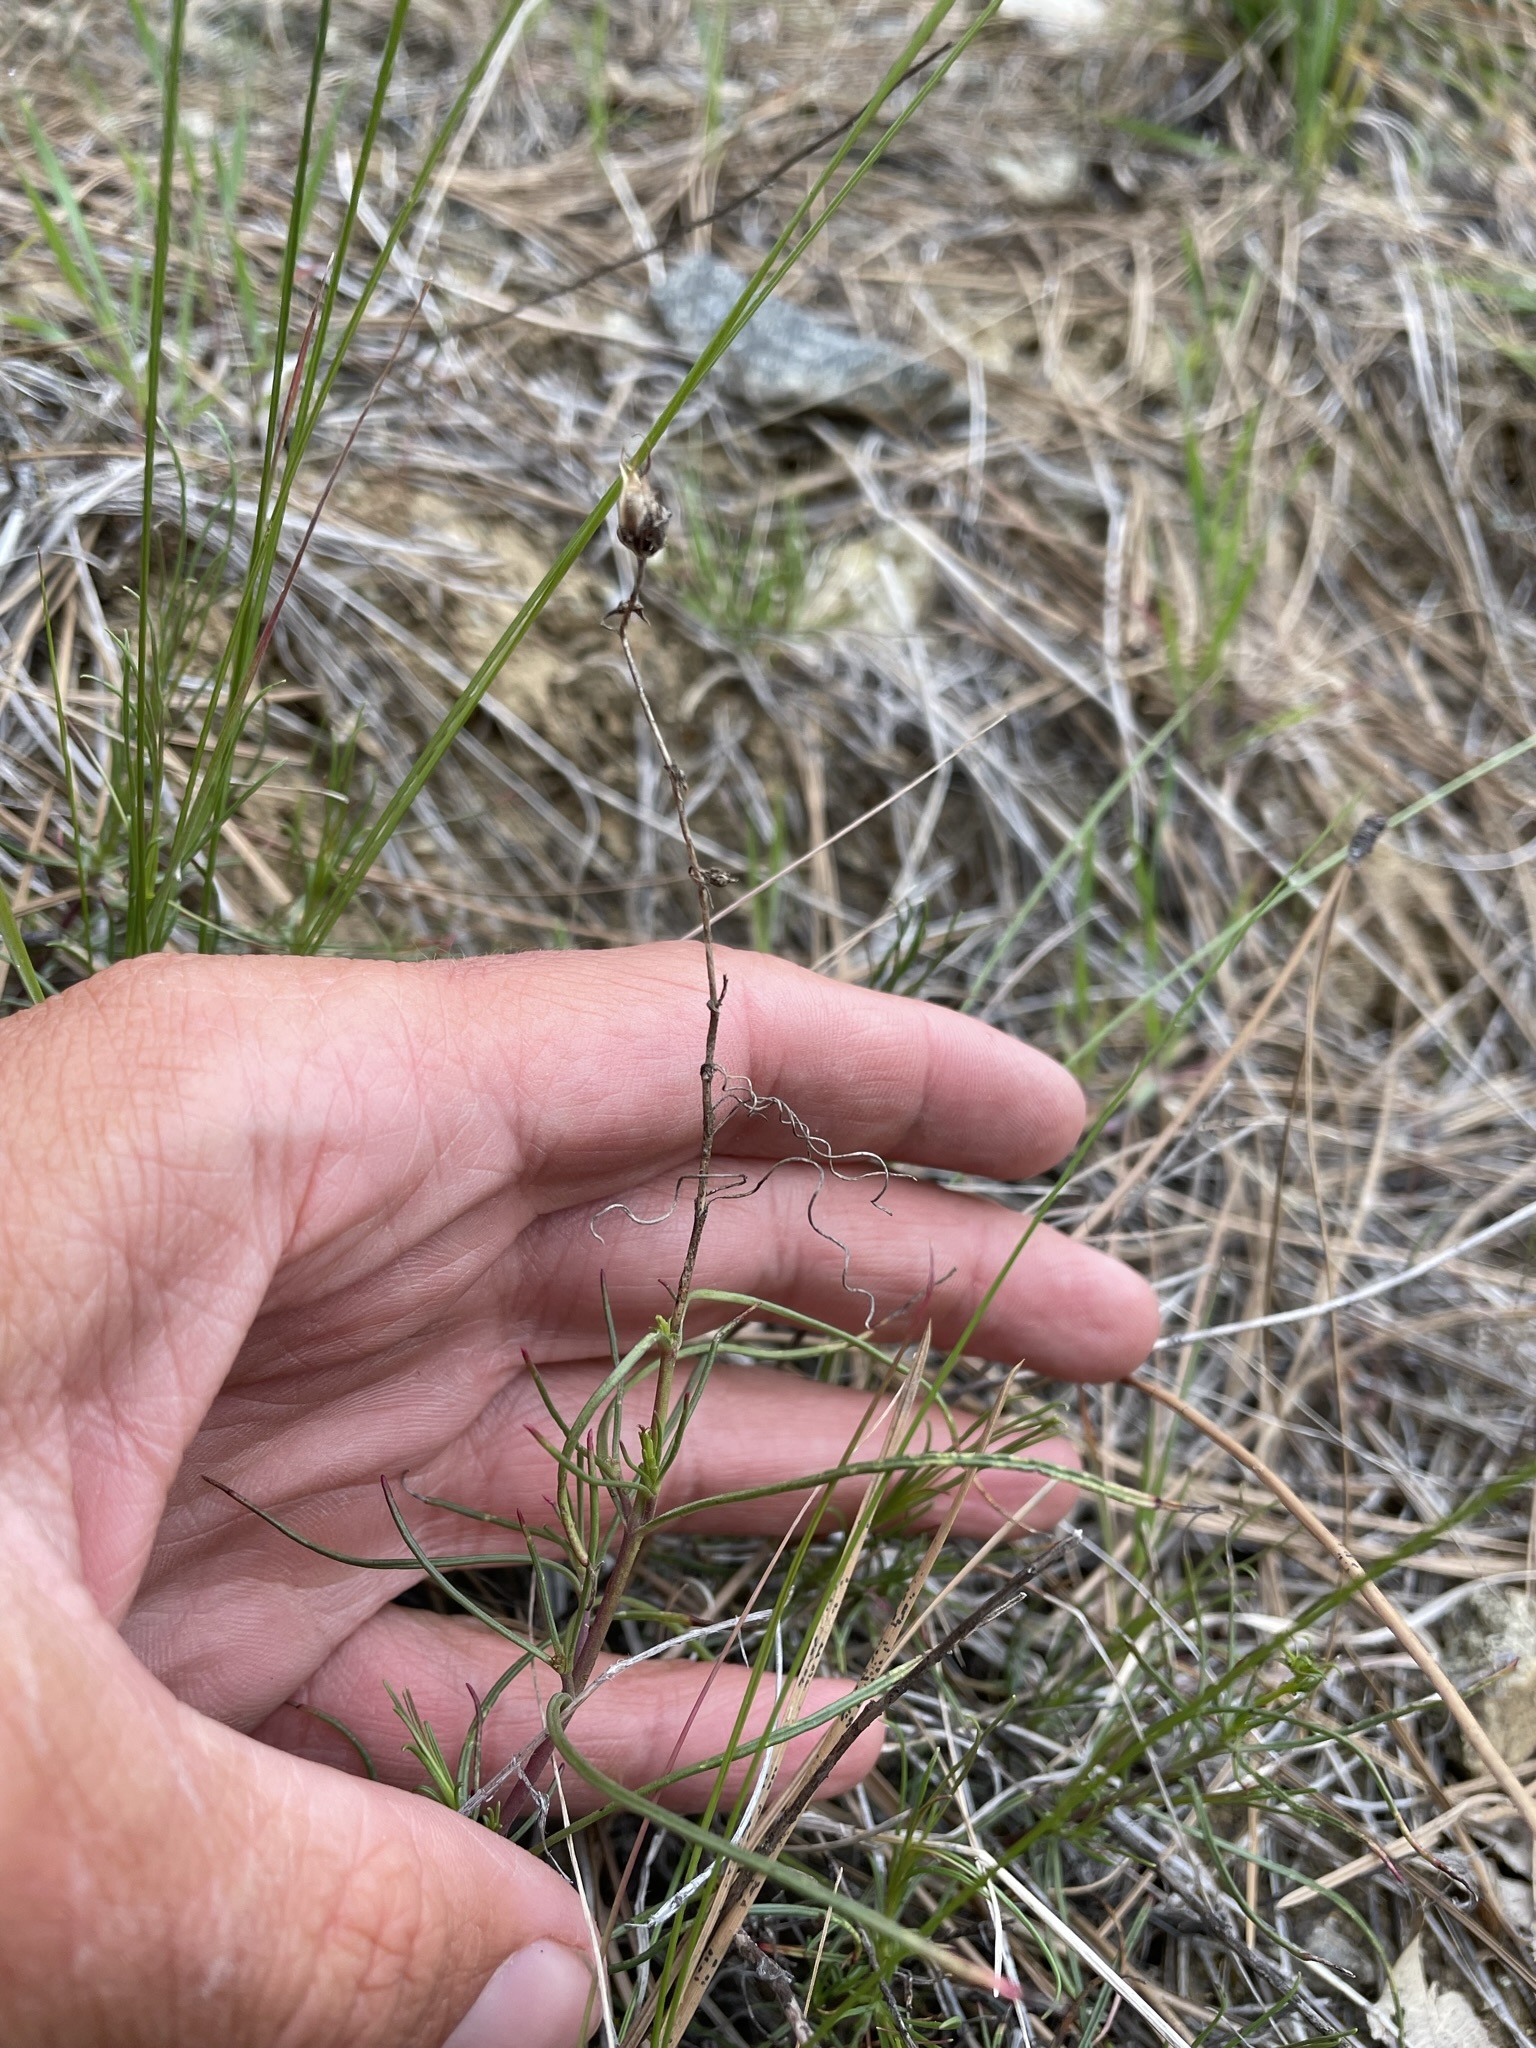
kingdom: Plantae
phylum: Tracheophyta
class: Magnoliopsida
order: Lamiales
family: Plantaginaceae
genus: Penstemon
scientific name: Penstemon filiformis
